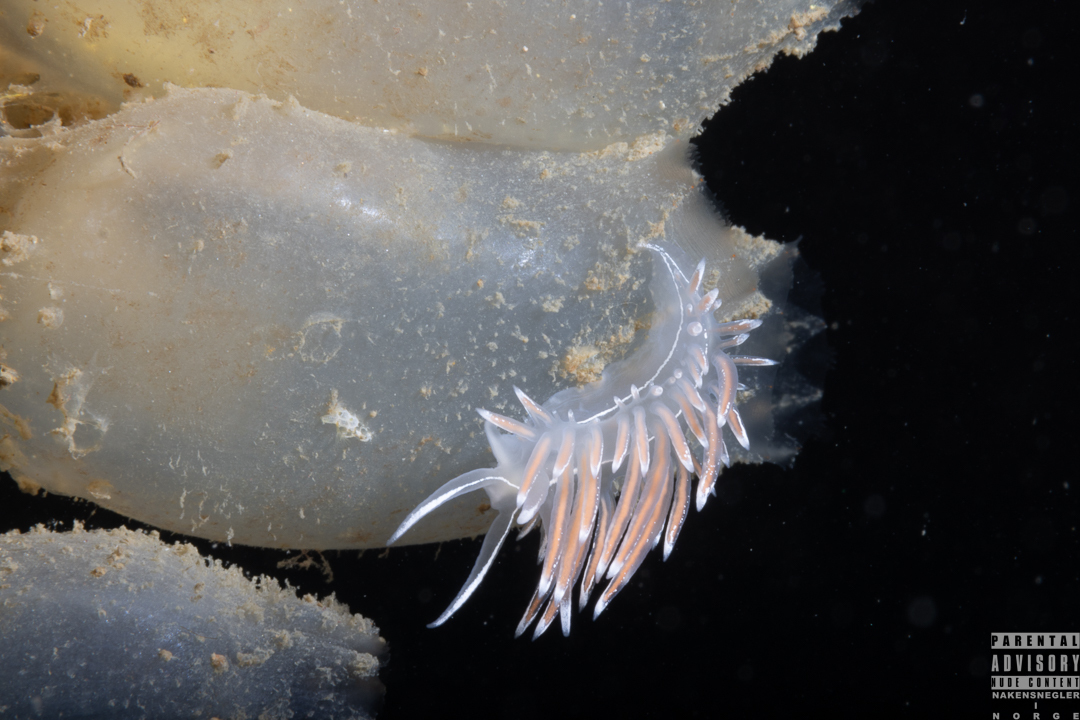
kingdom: Animalia
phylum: Mollusca
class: Gastropoda
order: Nudibranchia
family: Coryphellidae
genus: Coryphella
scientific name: Coryphella lineata
